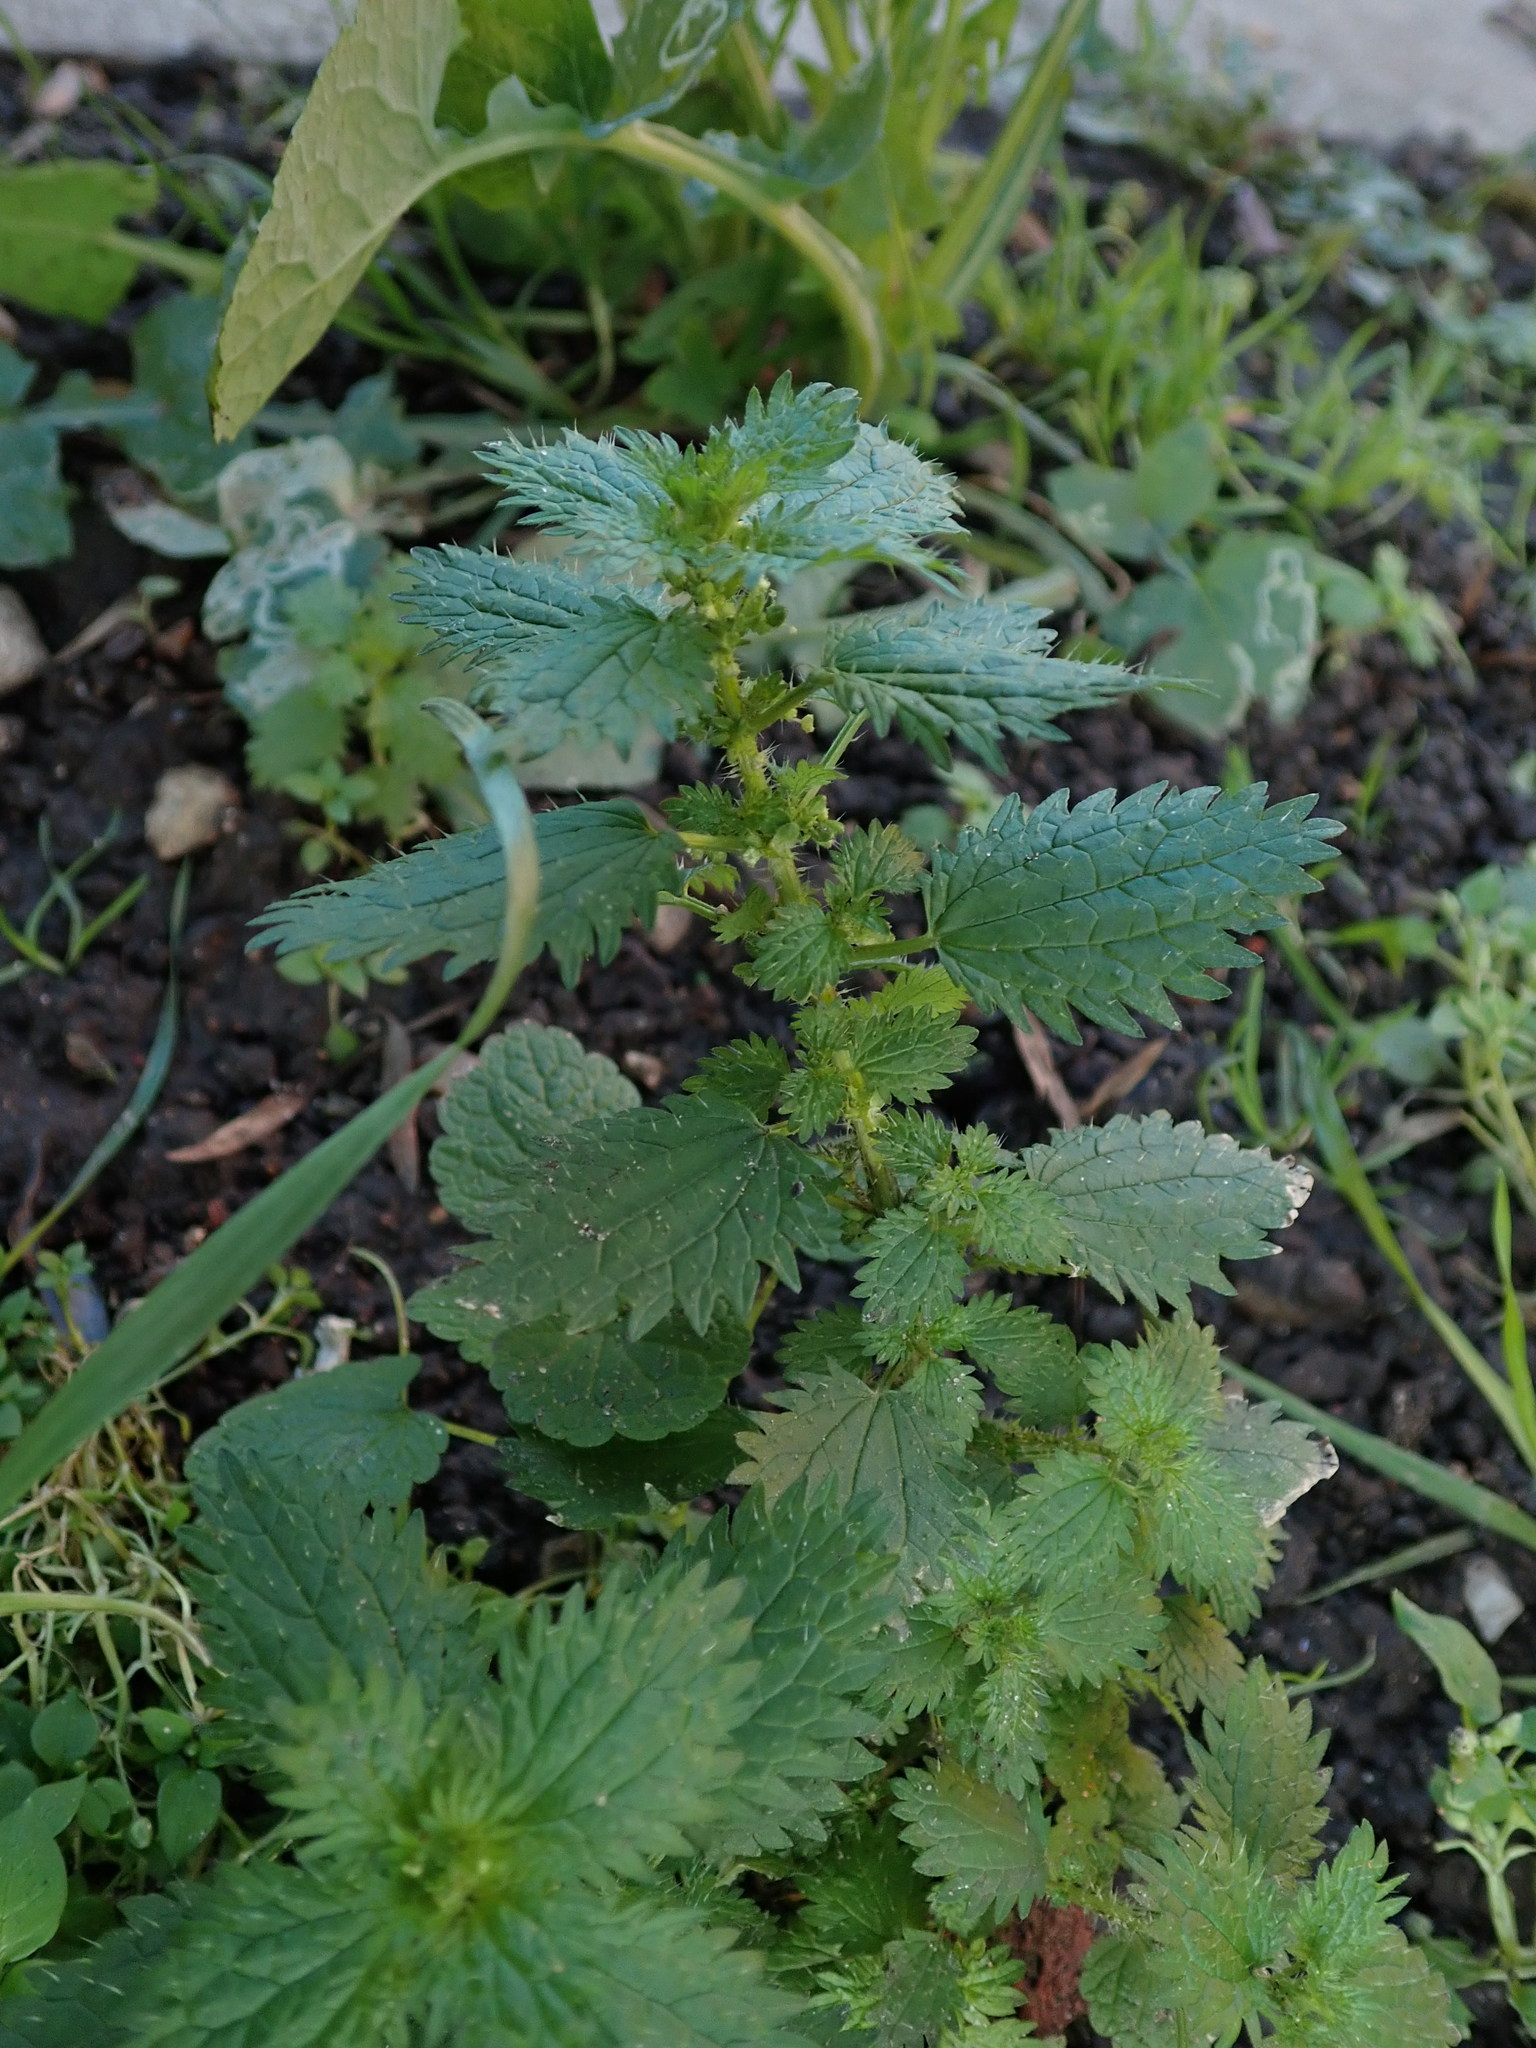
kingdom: Plantae
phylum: Tracheophyta
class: Magnoliopsida
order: Rosales
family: Urticaceae
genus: Urtica
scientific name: Urtica urens
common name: Dwarf nettle
